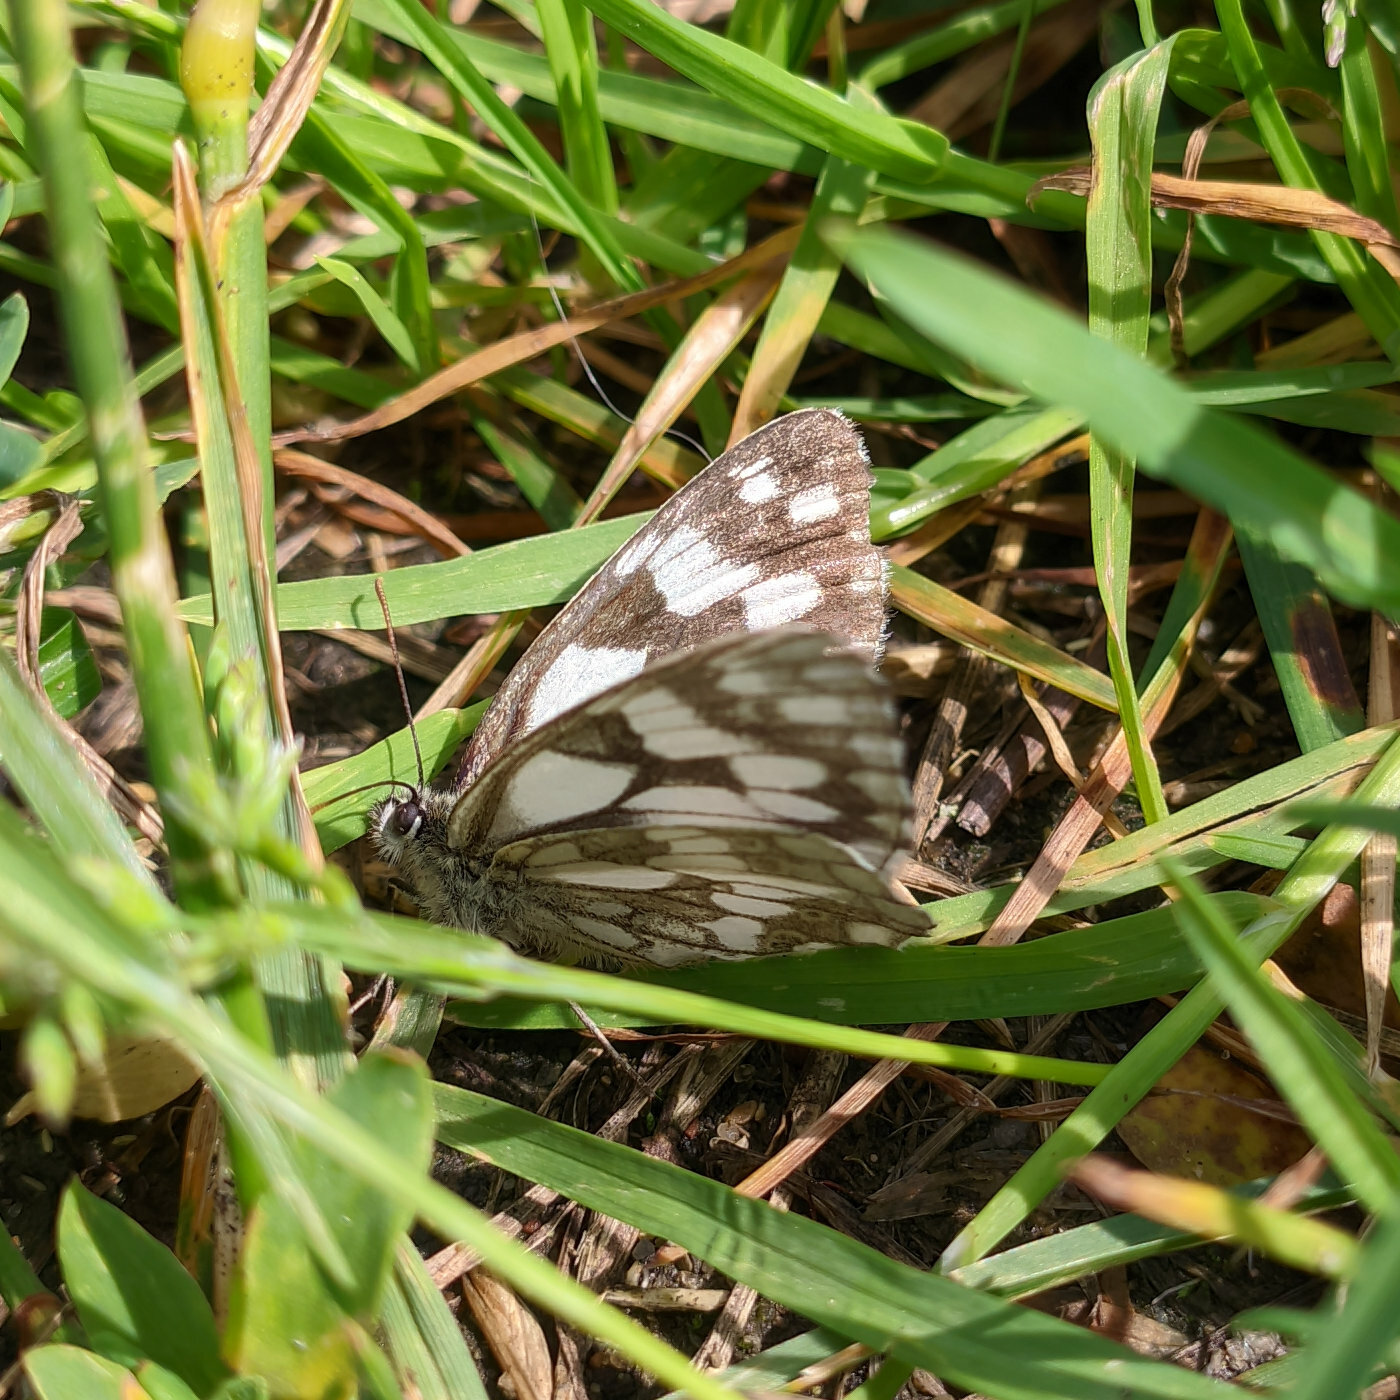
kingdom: Animalia
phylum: Arthropoda
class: Insecta
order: Lepidoptera
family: Nymphalidae
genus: Melanargia
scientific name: Melanargia galathea
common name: Marbled white
